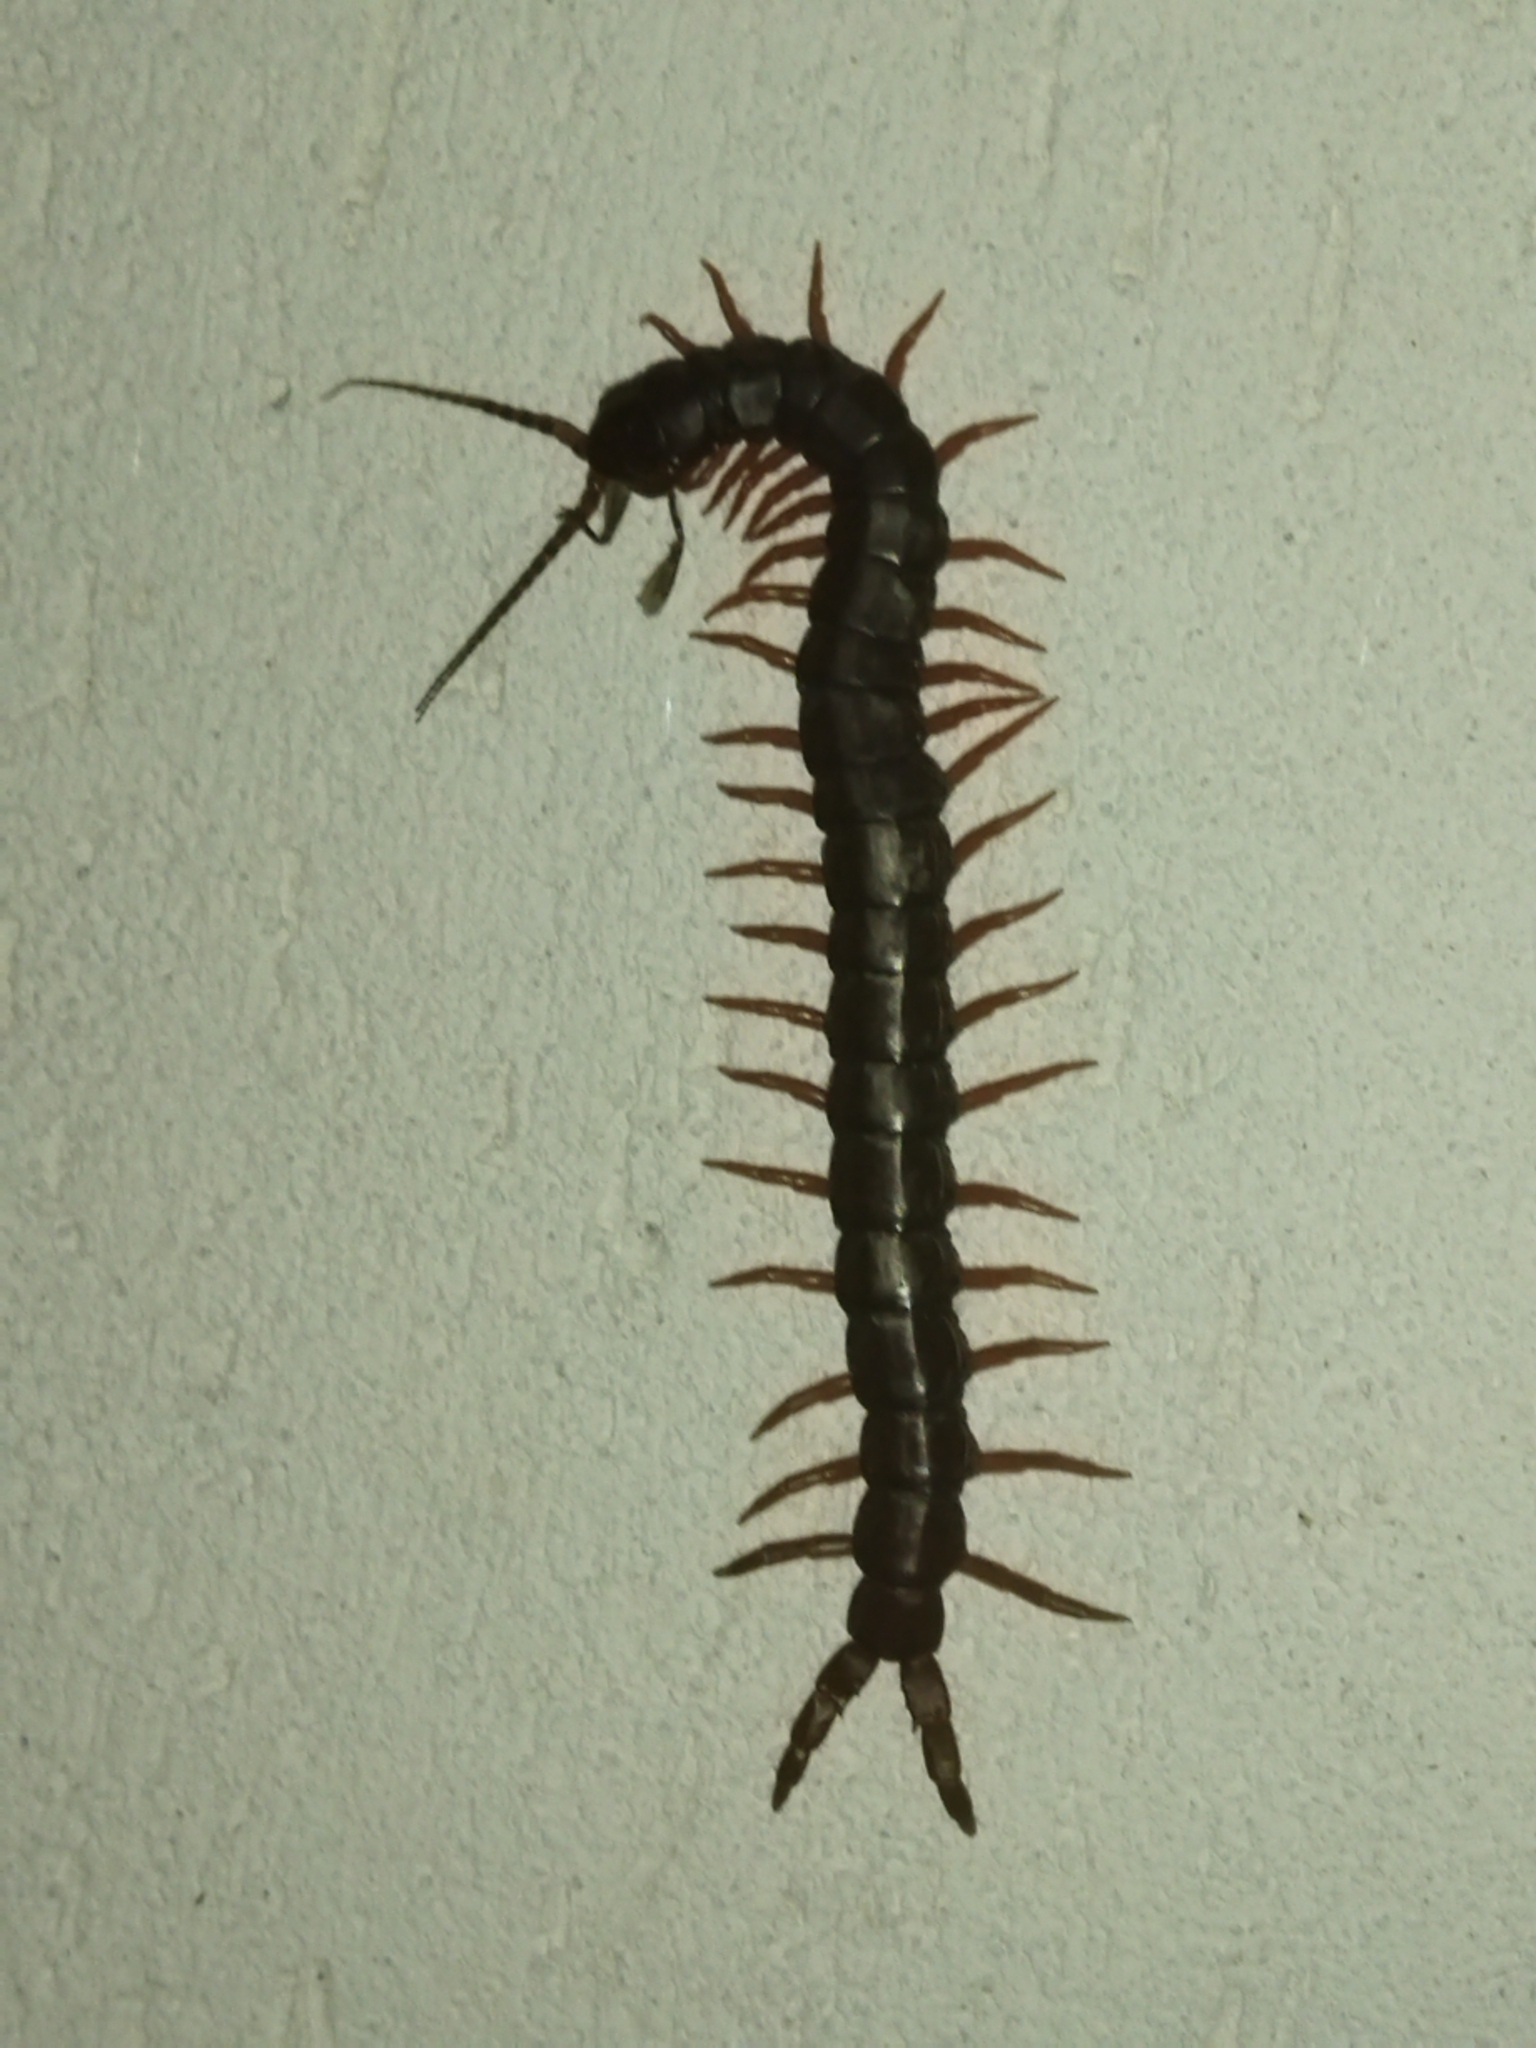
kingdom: Animalia
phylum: Arthropoda
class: Chilopoda
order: Scolopendromorpha
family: Scolopendridae
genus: Scolopendra
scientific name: Scolopendra cingulata
